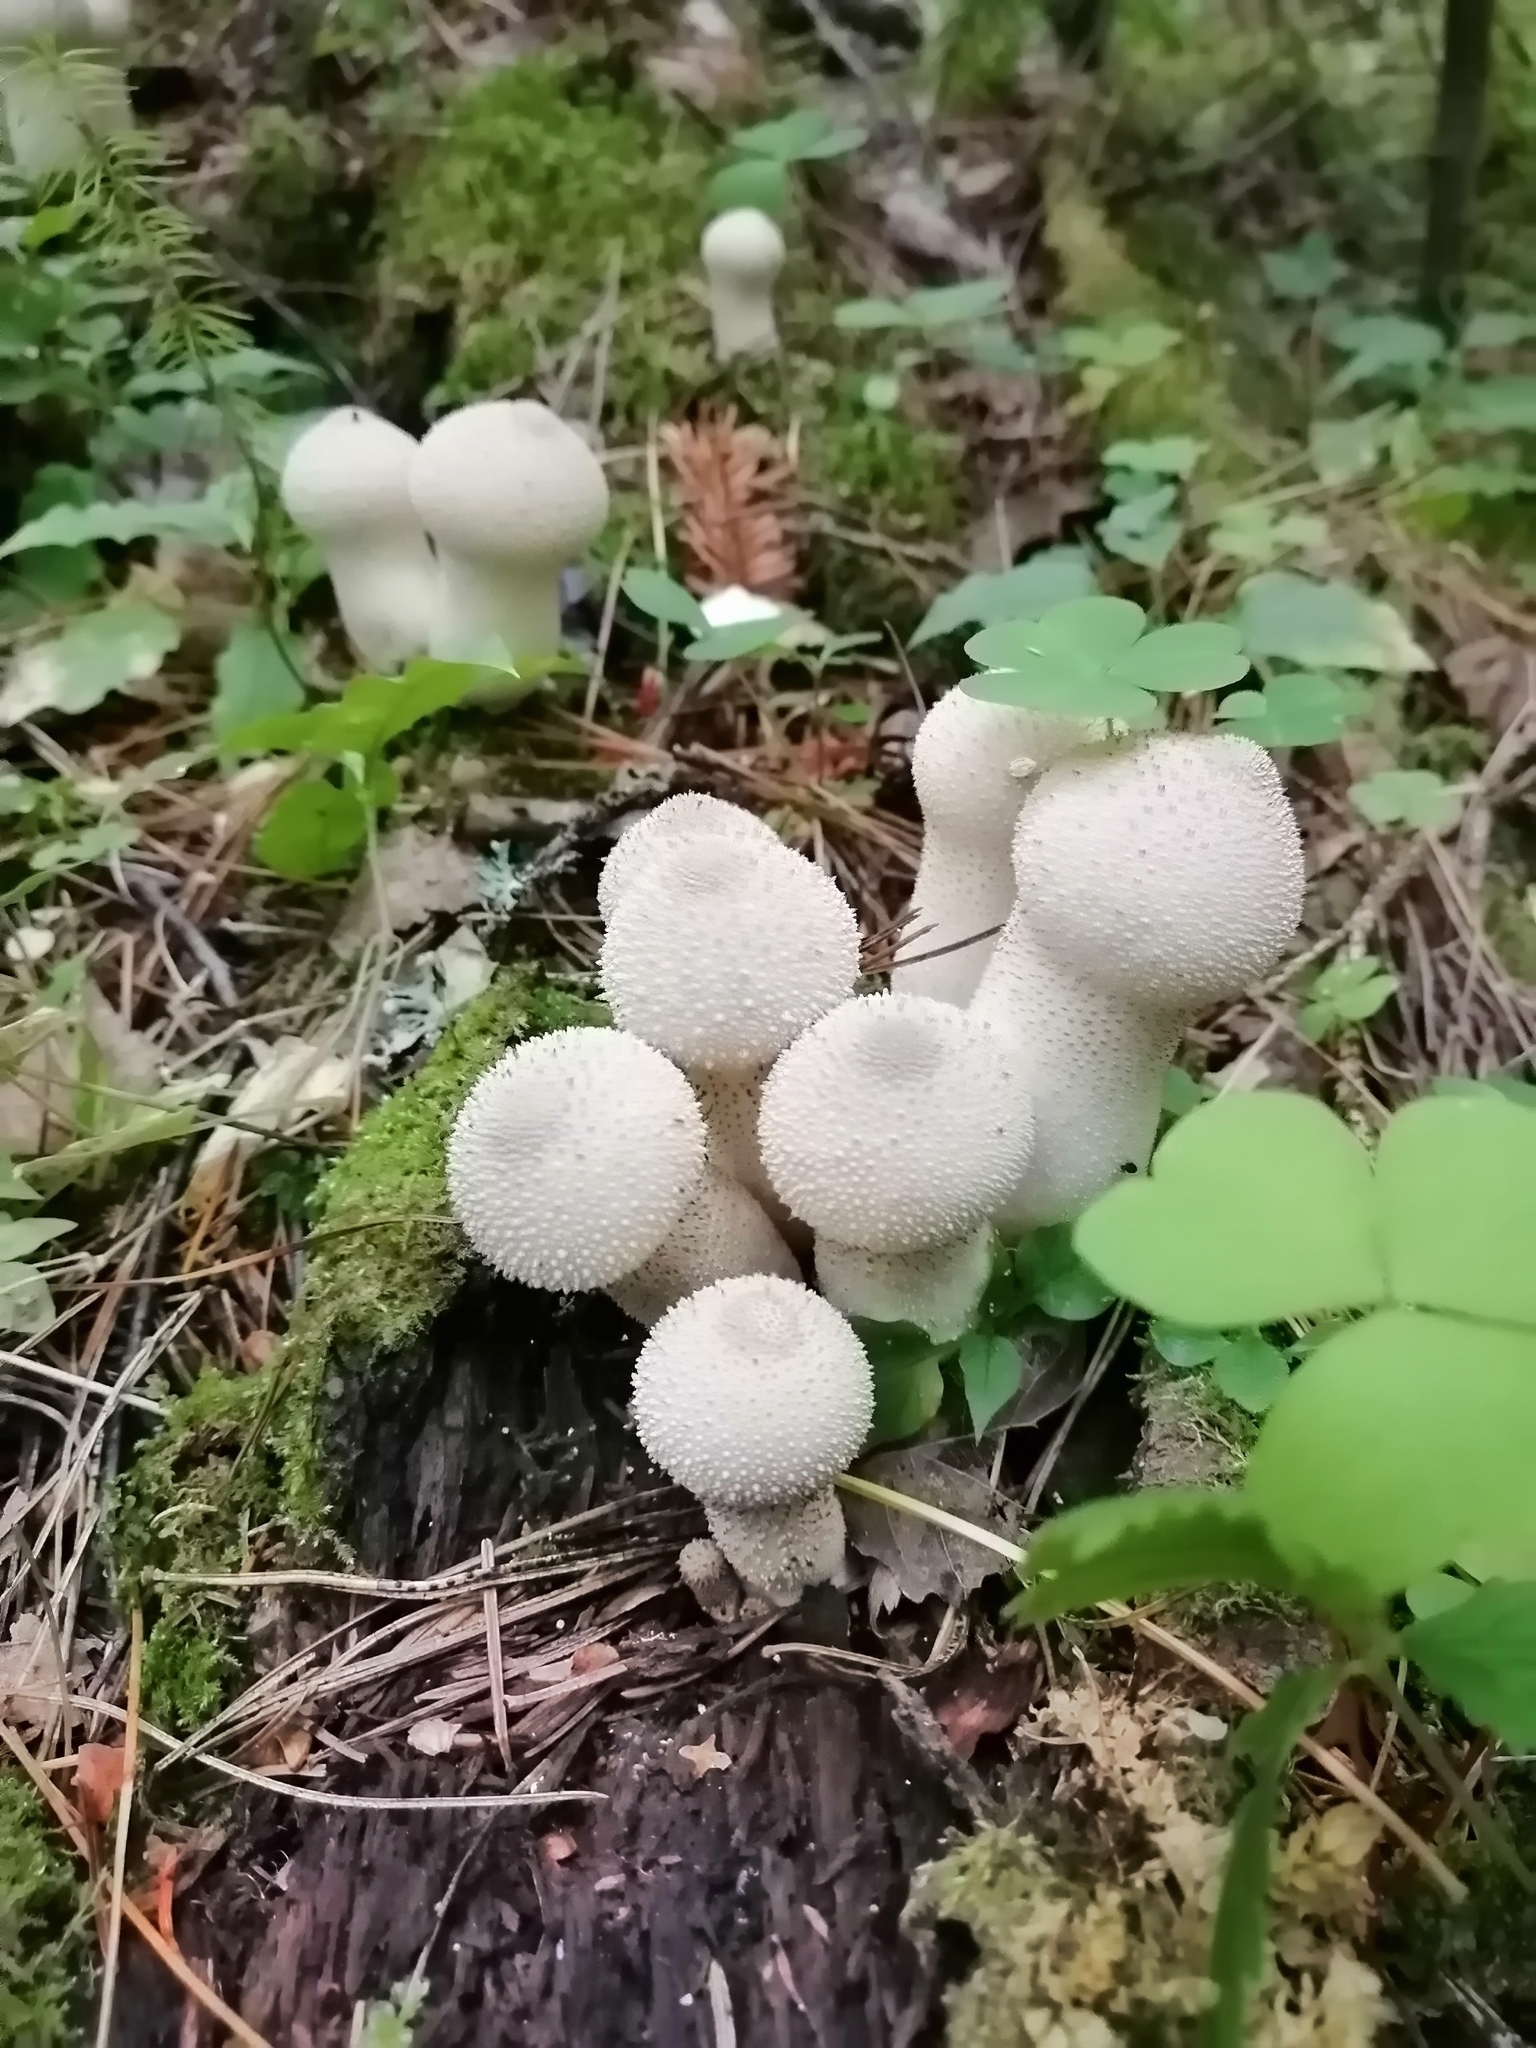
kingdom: Fungi
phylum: Basidiomycota
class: Agaricomycetes
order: Agaricales
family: Lycoperdaceae
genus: Lycoperdon
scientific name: Lycoperdon perlatum
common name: Common puffball
